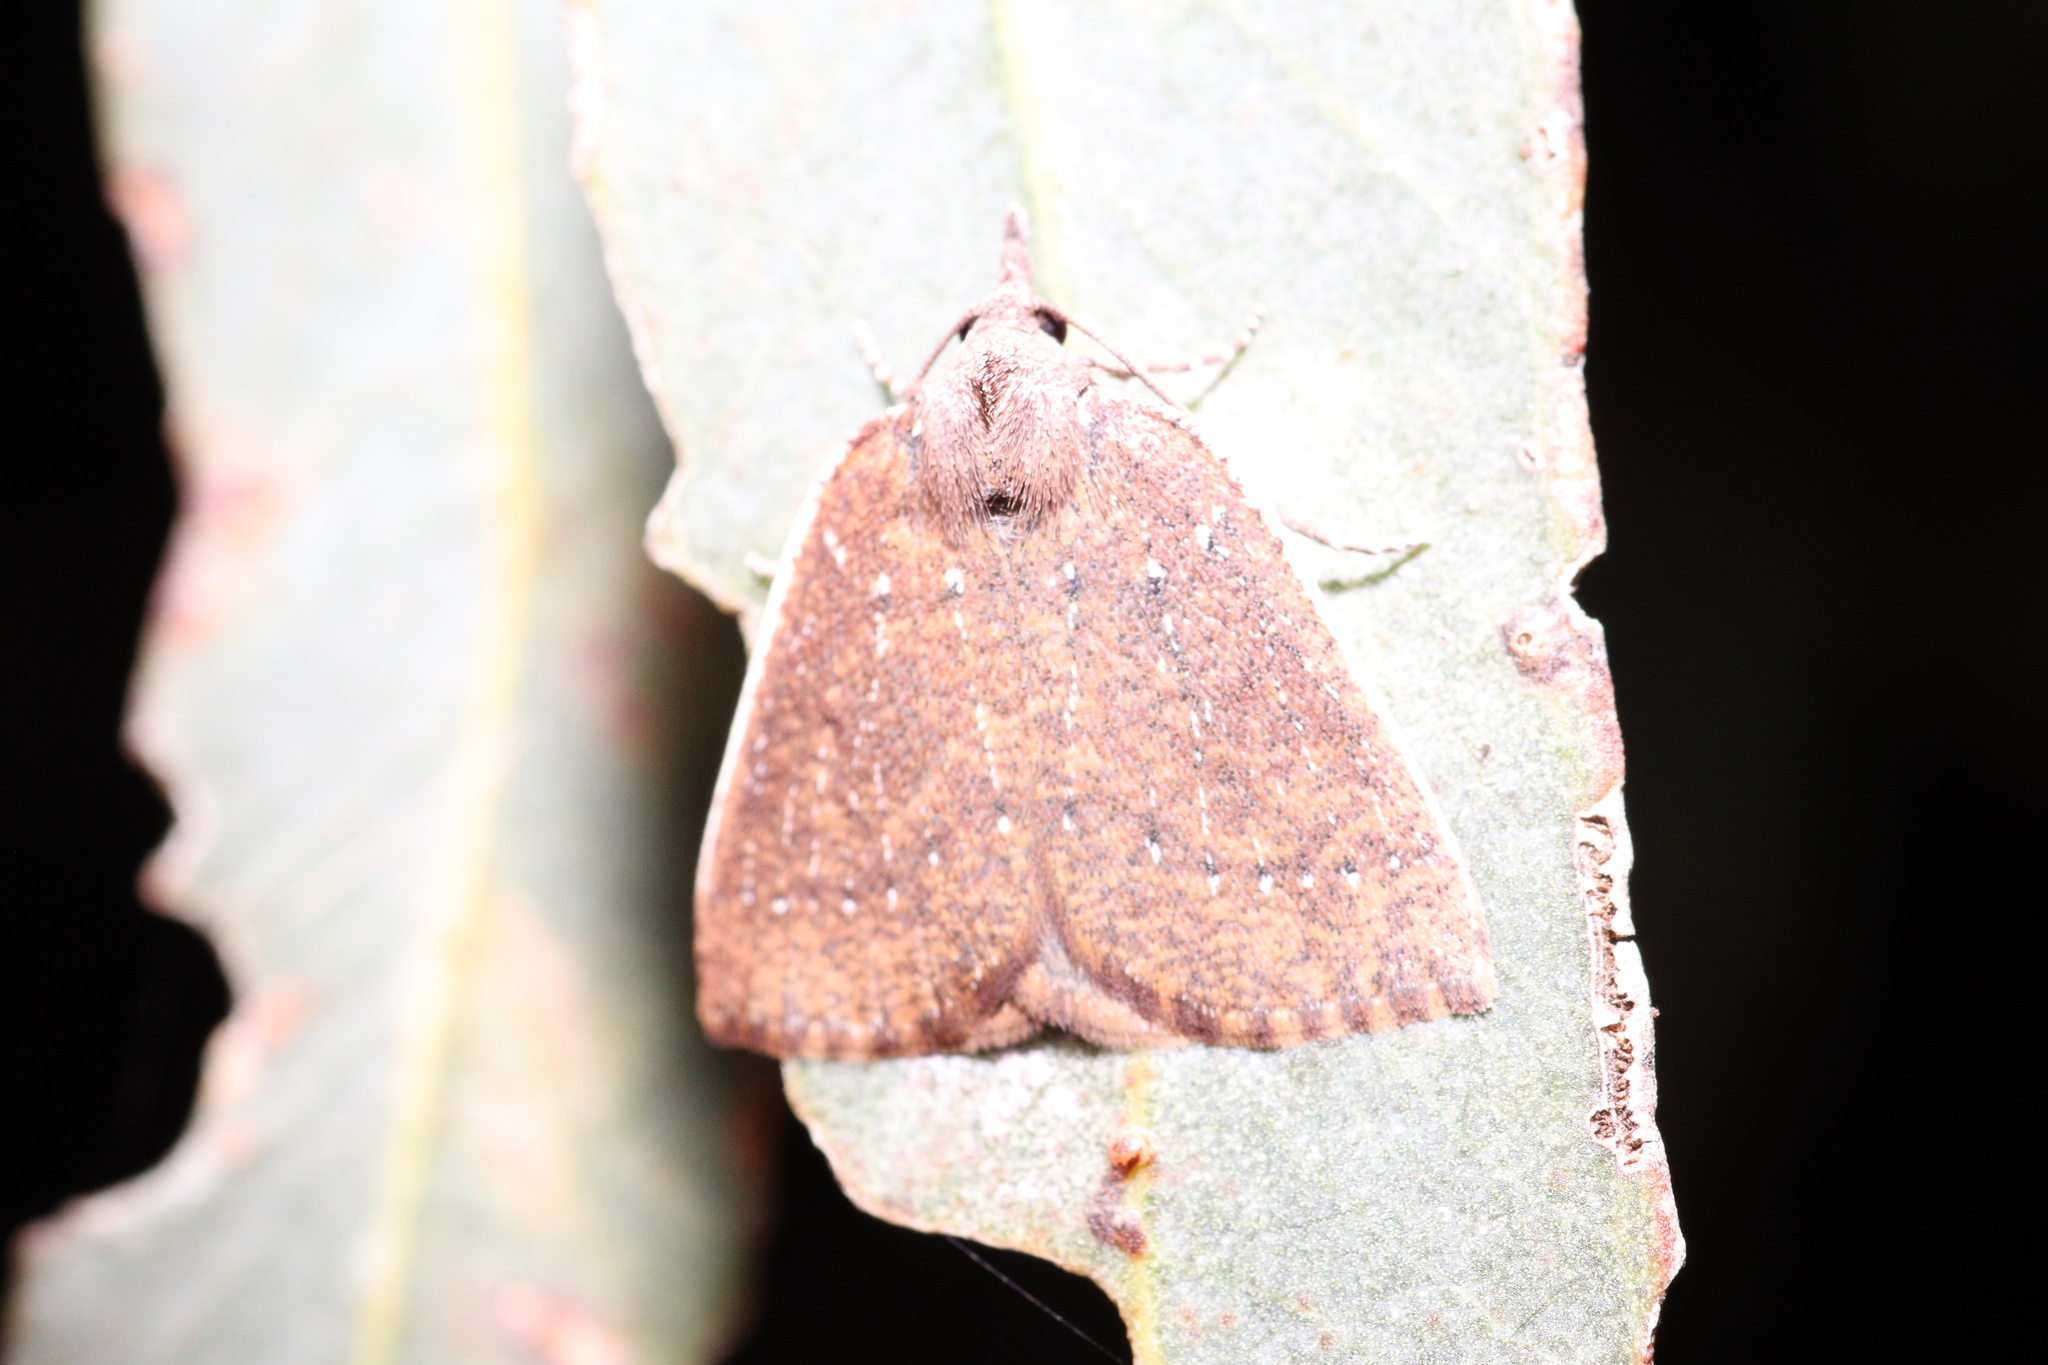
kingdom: Animalia
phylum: Arthropoda
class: Insecta
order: Lepidoptera
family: Geometridae
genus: Authaemon
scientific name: Authaemon stenonipha
